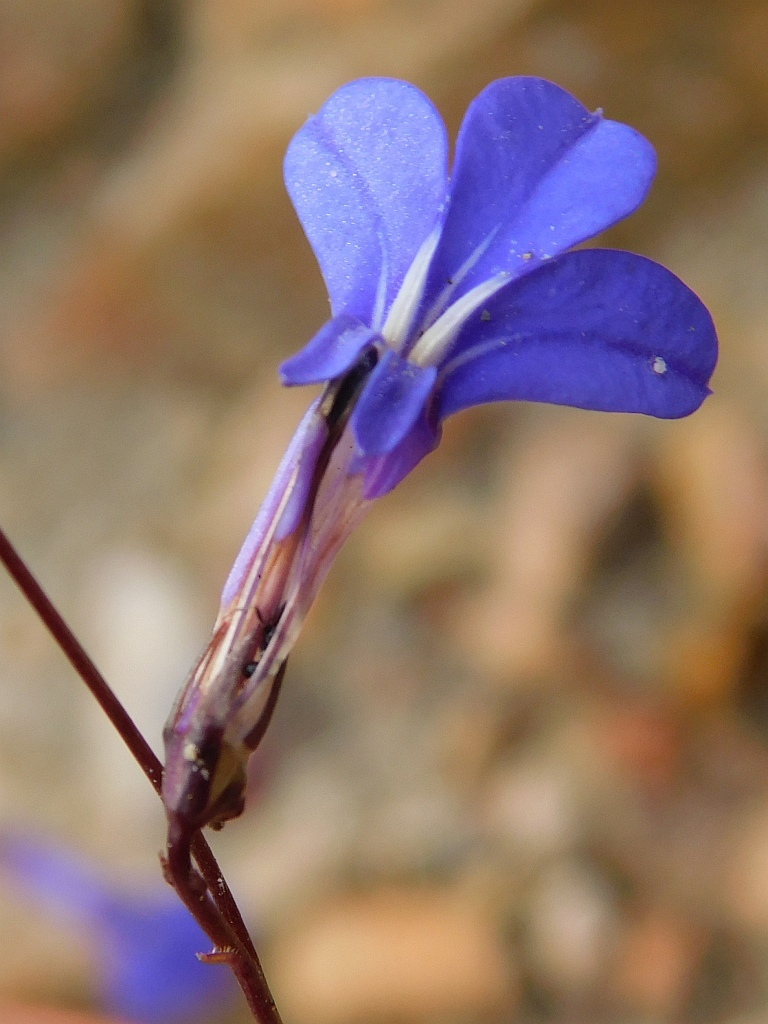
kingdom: Plantae
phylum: Tracheophyta
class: Magnoliopsida
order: Asterales
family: Campanulaceae
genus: Lobelia
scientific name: Lobelia coronopifolia
